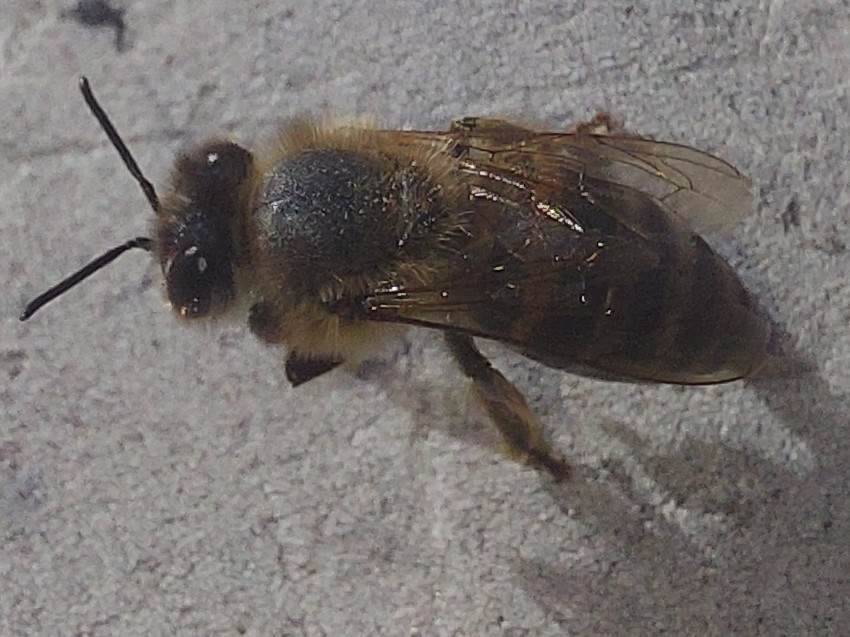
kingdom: Animalia
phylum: Arthropoda
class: Insecta
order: Hymenoptera
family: Apidae
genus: Apis
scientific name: Apis mellifera
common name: Honey bee
